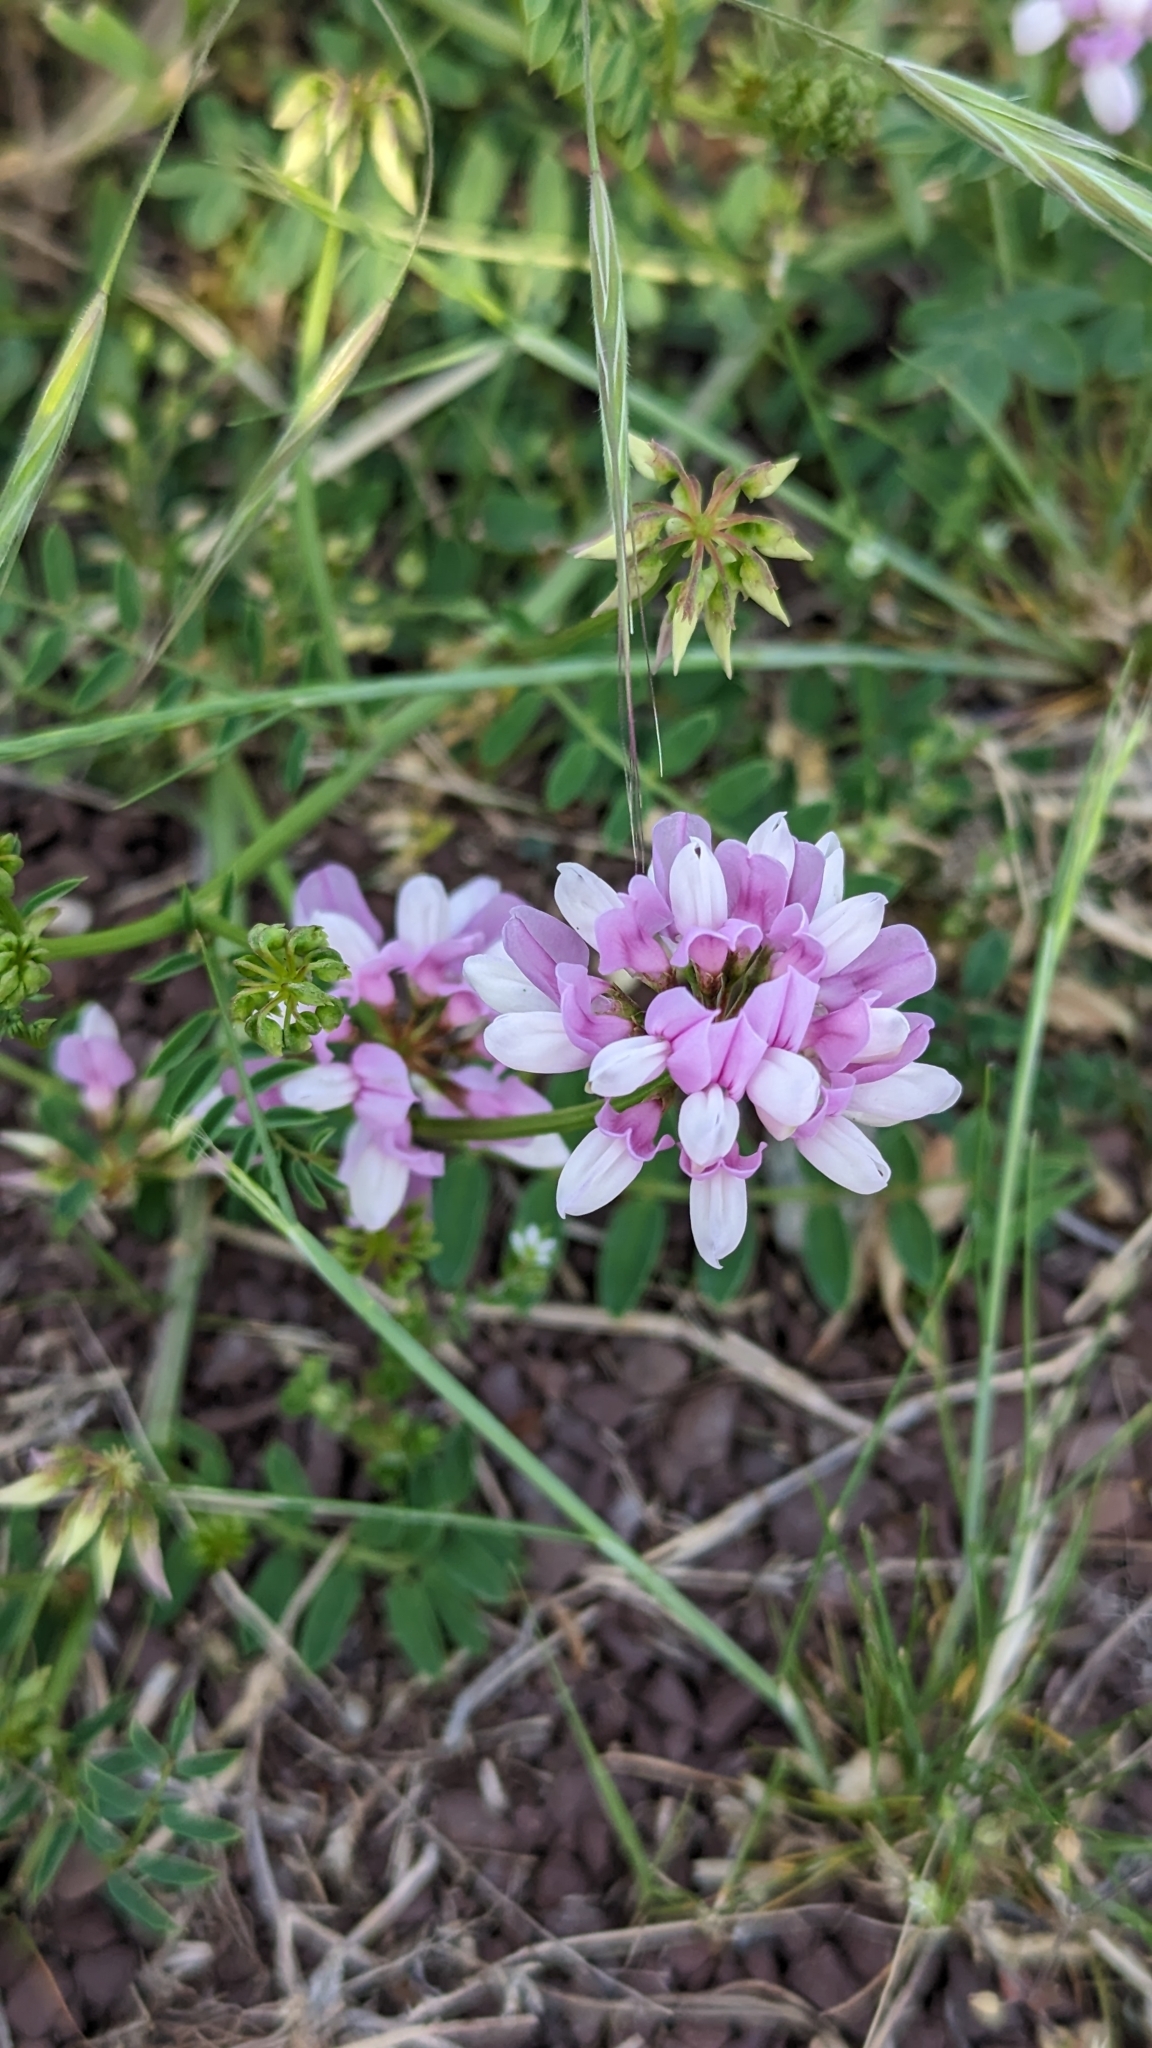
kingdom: Plantae
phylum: Tracheophyta
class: Magnoliopsida
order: Fabales
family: Fabaceae
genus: Coronilla
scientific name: Coronilla varia
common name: Crownvetch
